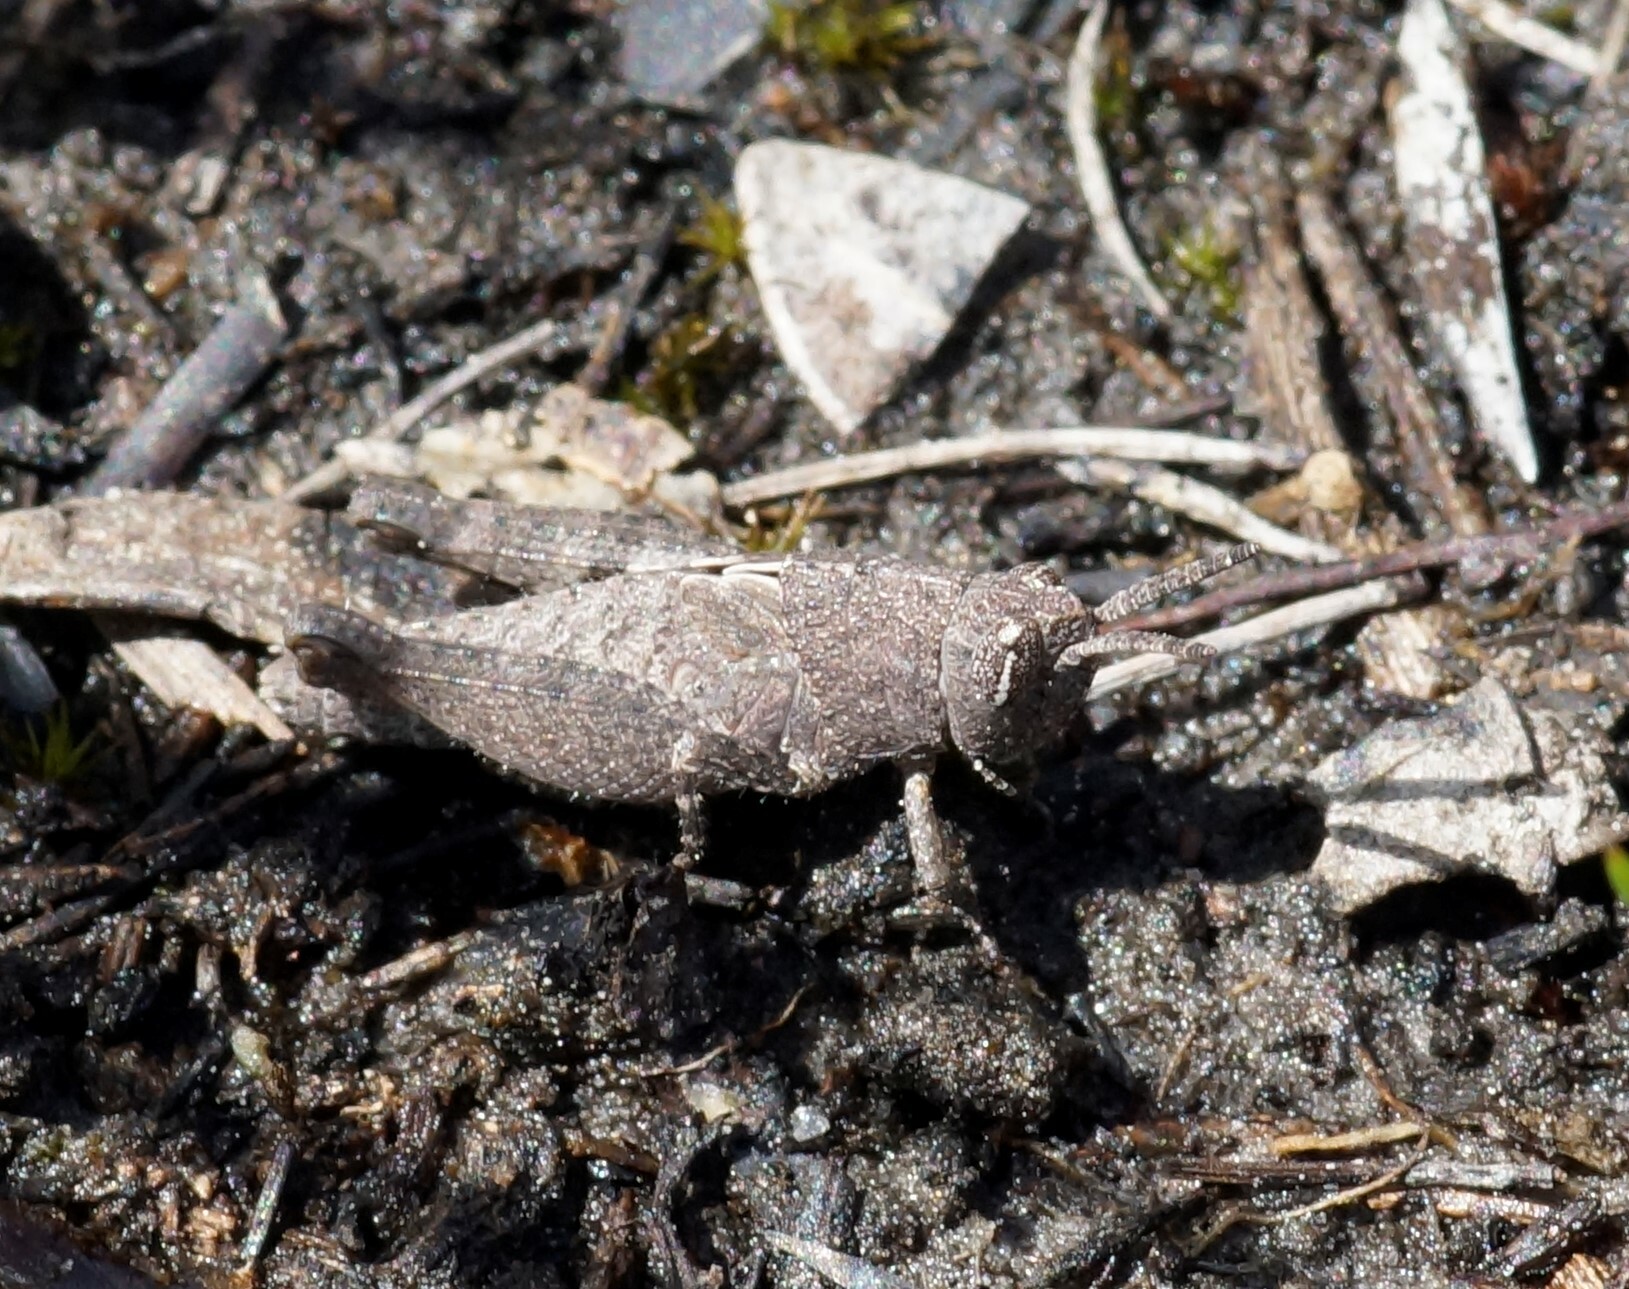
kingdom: Animalia
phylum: Arthropoda
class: Insecta
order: Orthoptera
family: Acrididae
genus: Goniaea
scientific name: Goniaea opomaloides
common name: Mimetic gumleaf grasshopper
